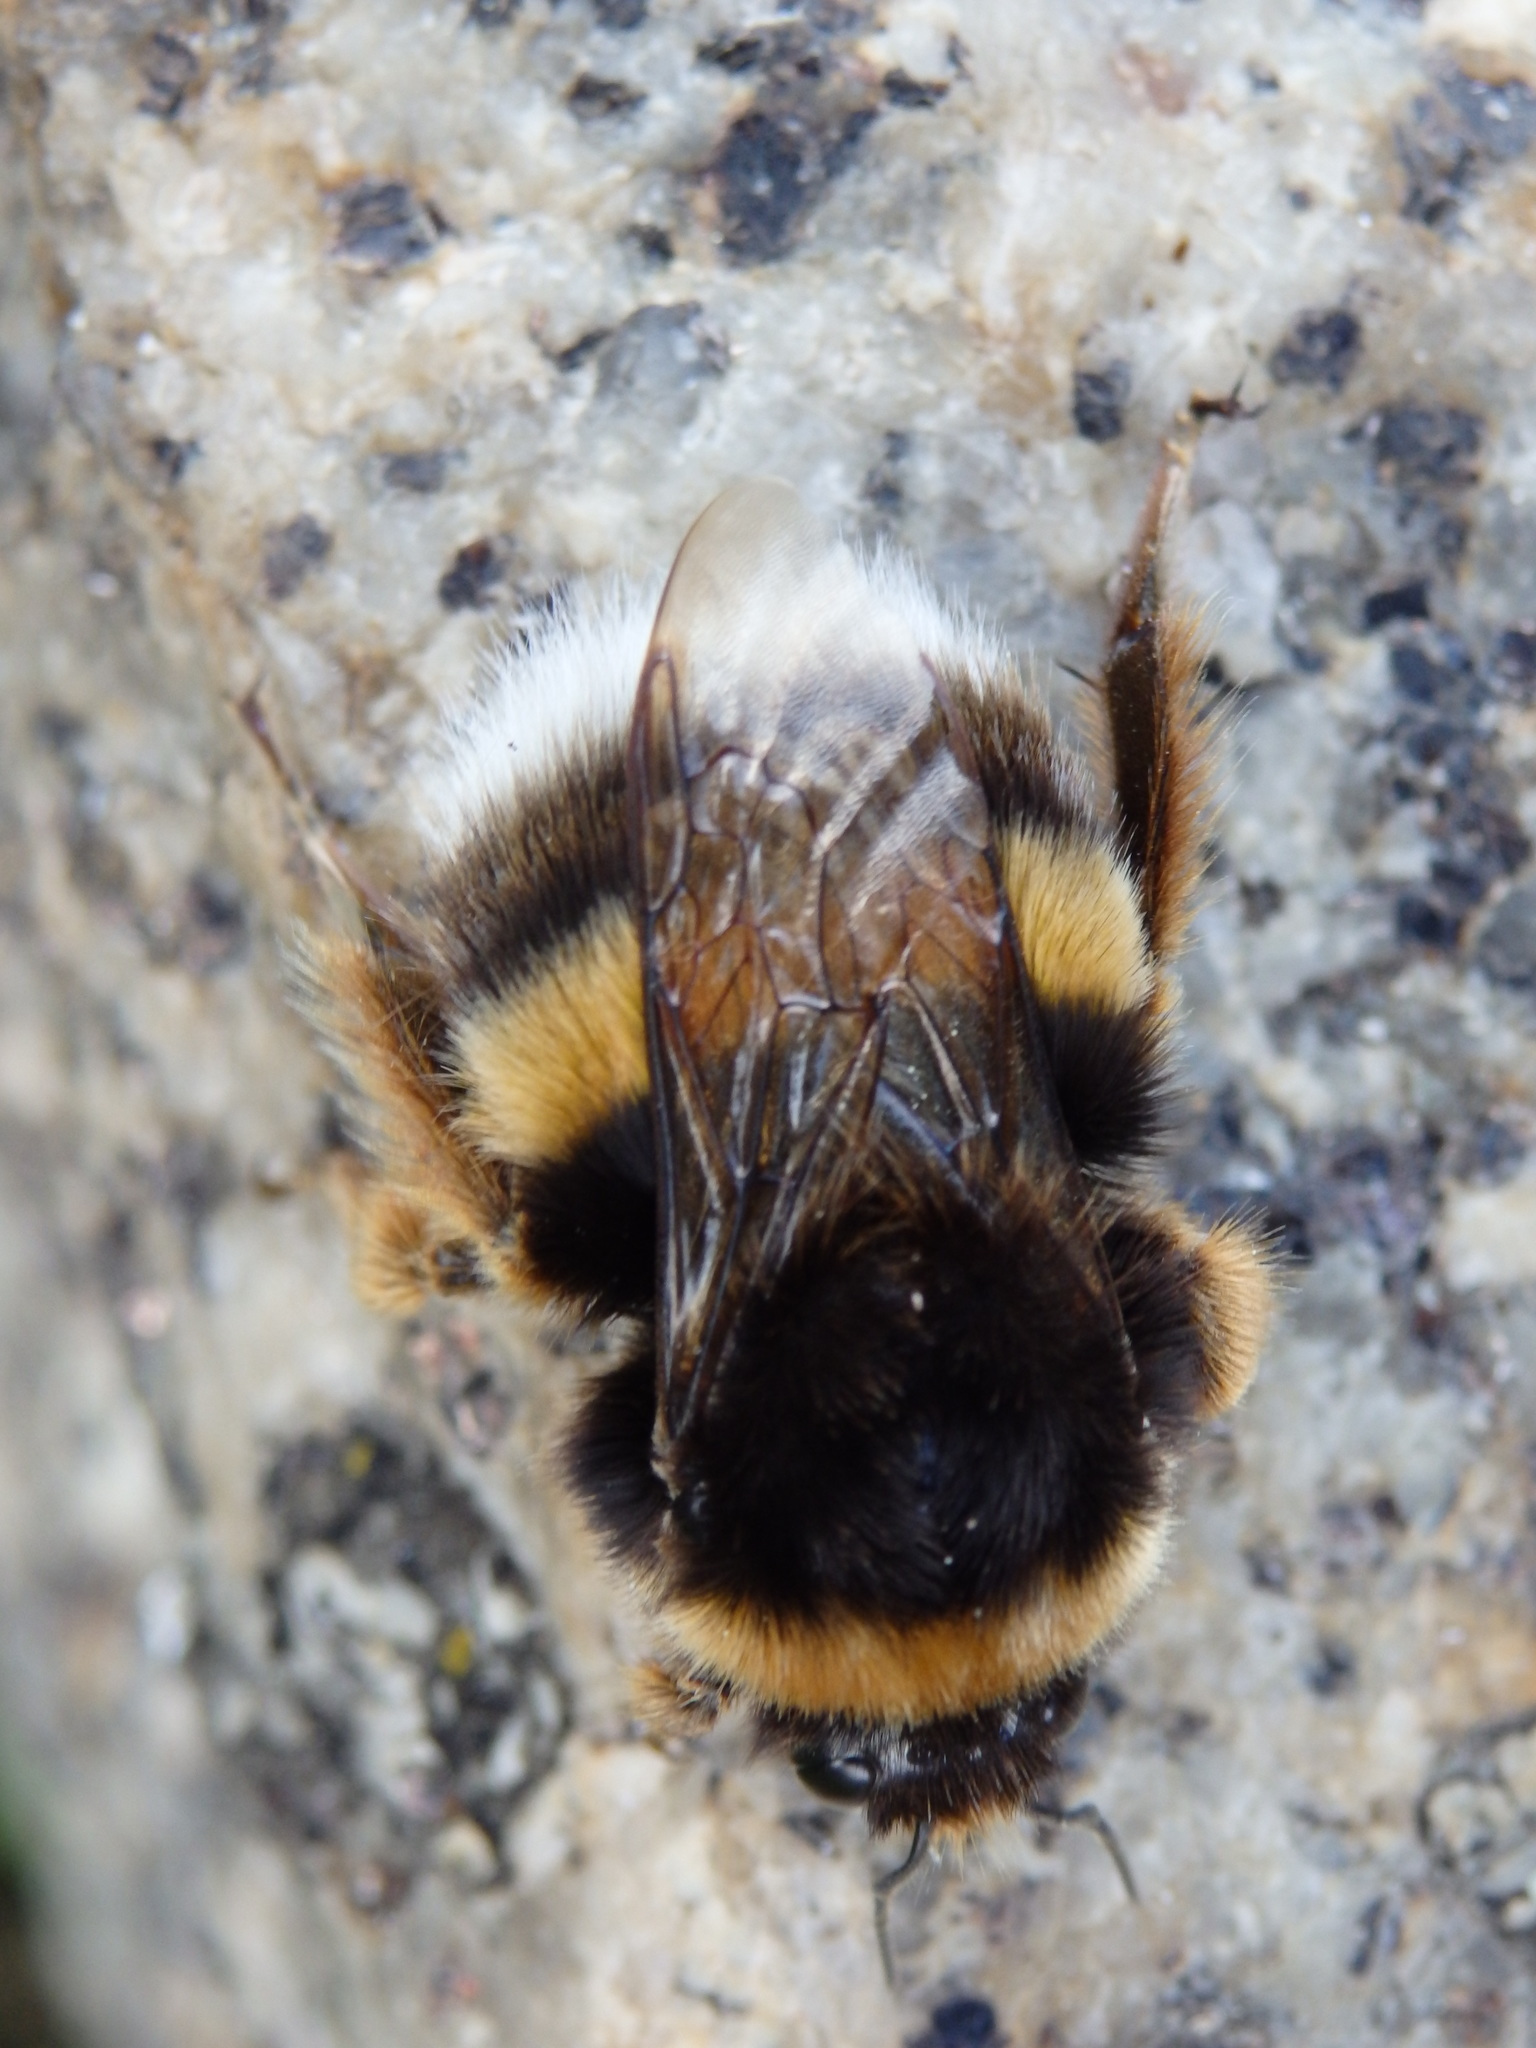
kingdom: Animalia
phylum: Arthropoda
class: Insecta
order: Hymenoptera
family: Apidae
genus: Bombus
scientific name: Bombus terrestris
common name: Buff-tailed bumblebee
